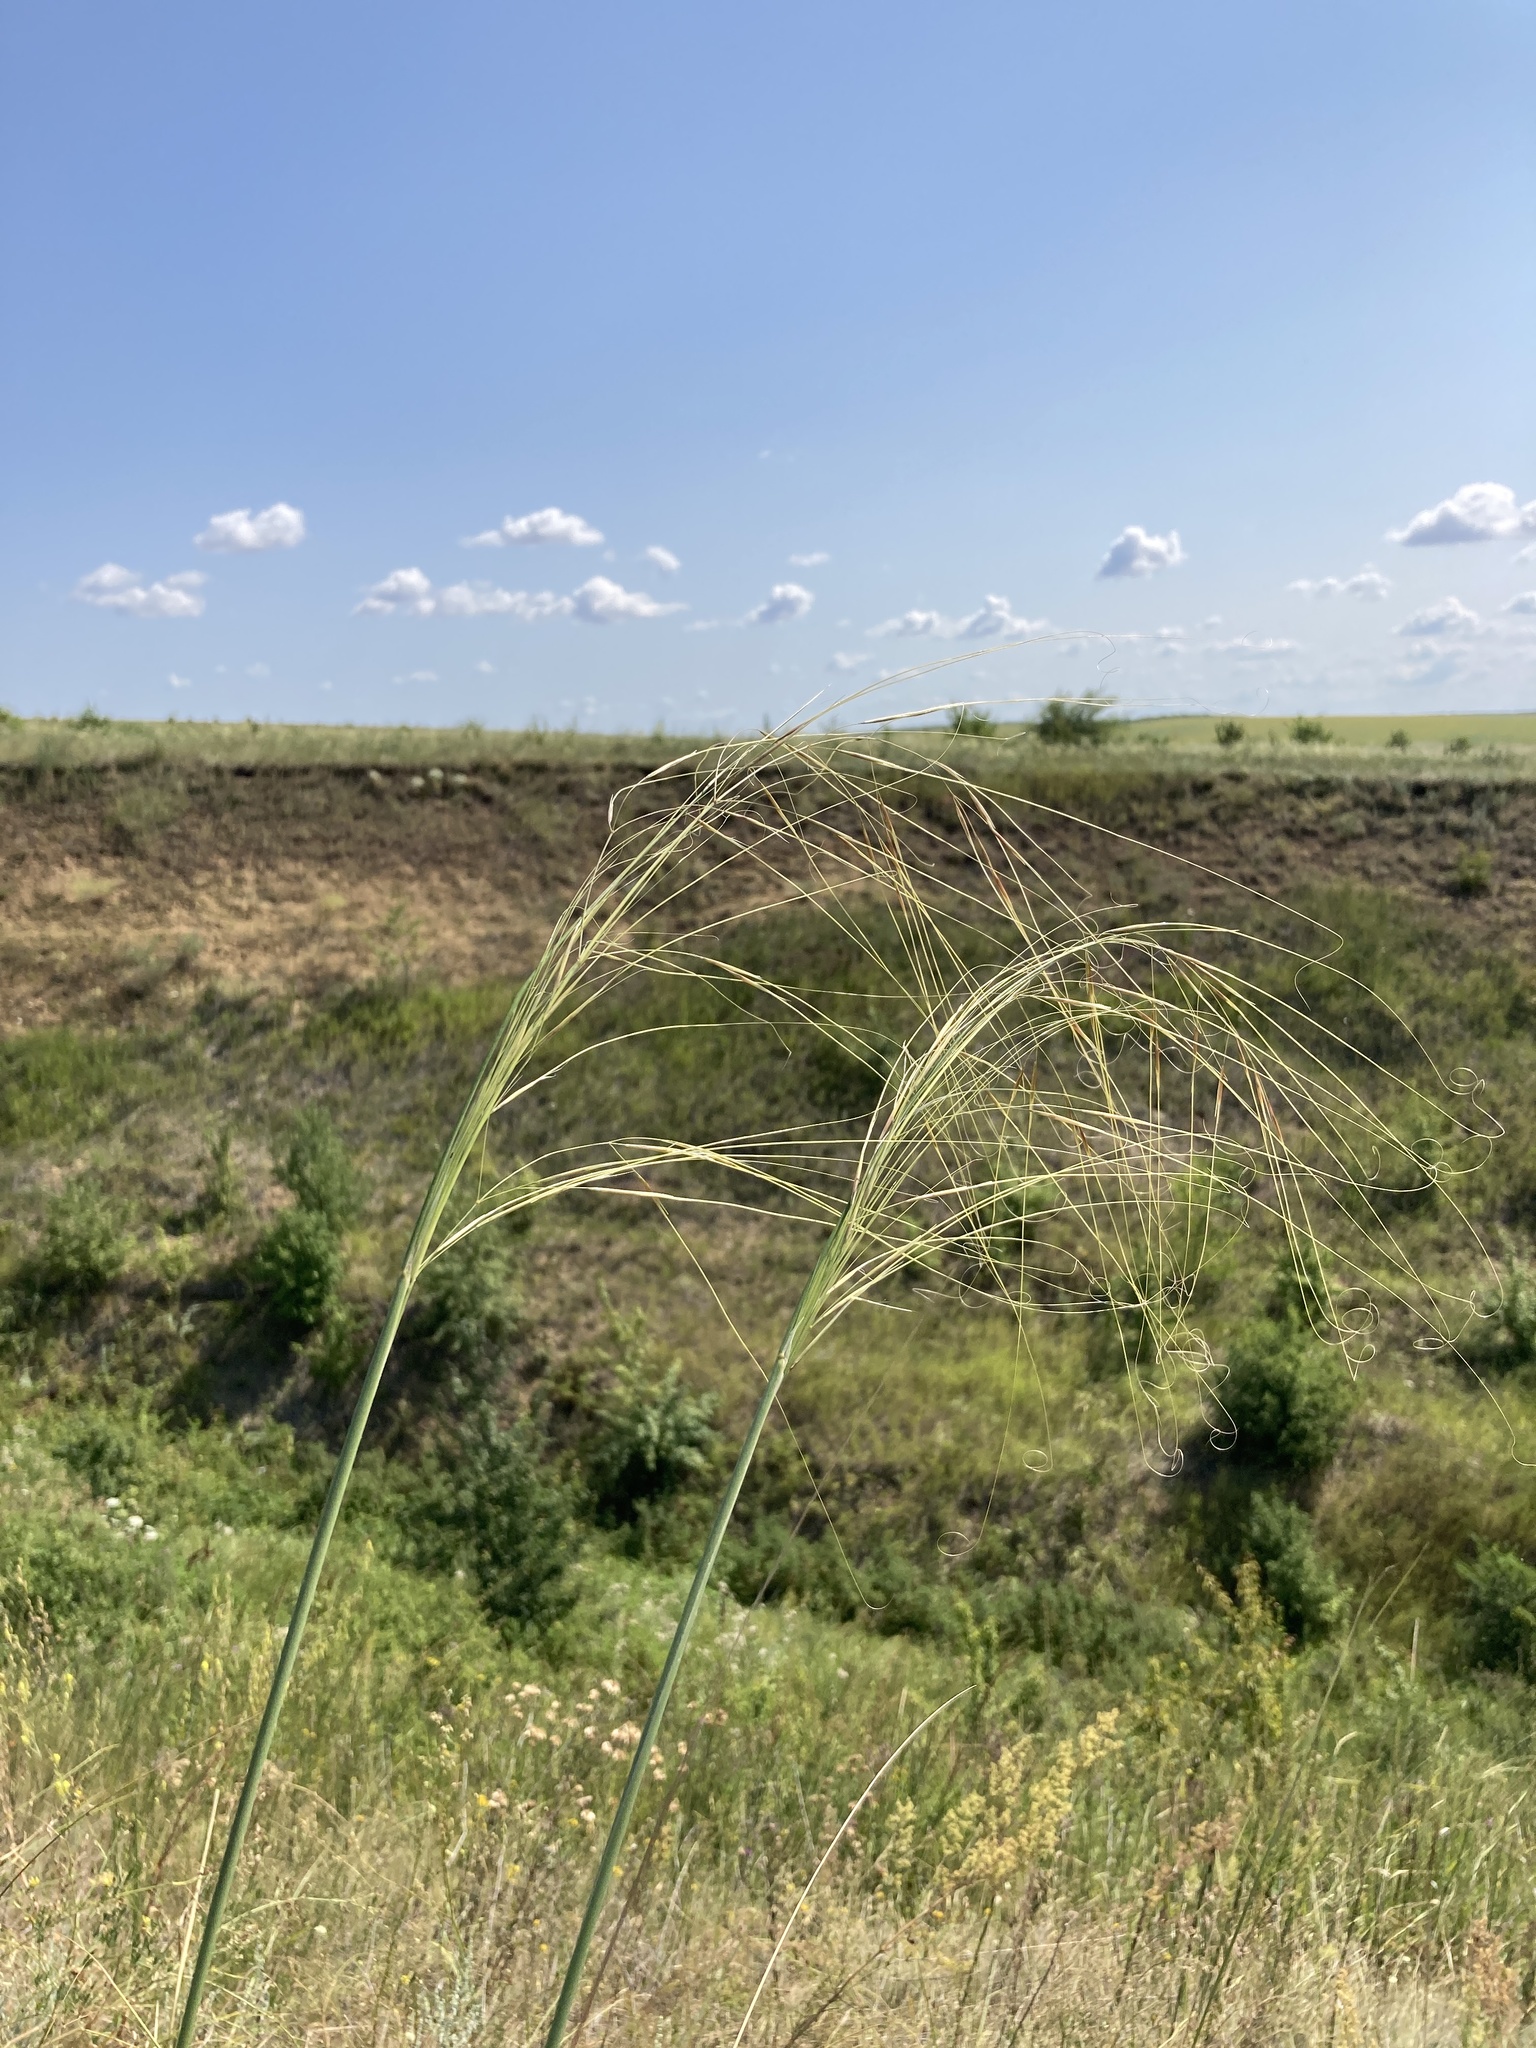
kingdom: Plantae
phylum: Tracheophyta
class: Liliopsida
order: Poales
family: Poaceae
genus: Stipa
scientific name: Stipa capillata
